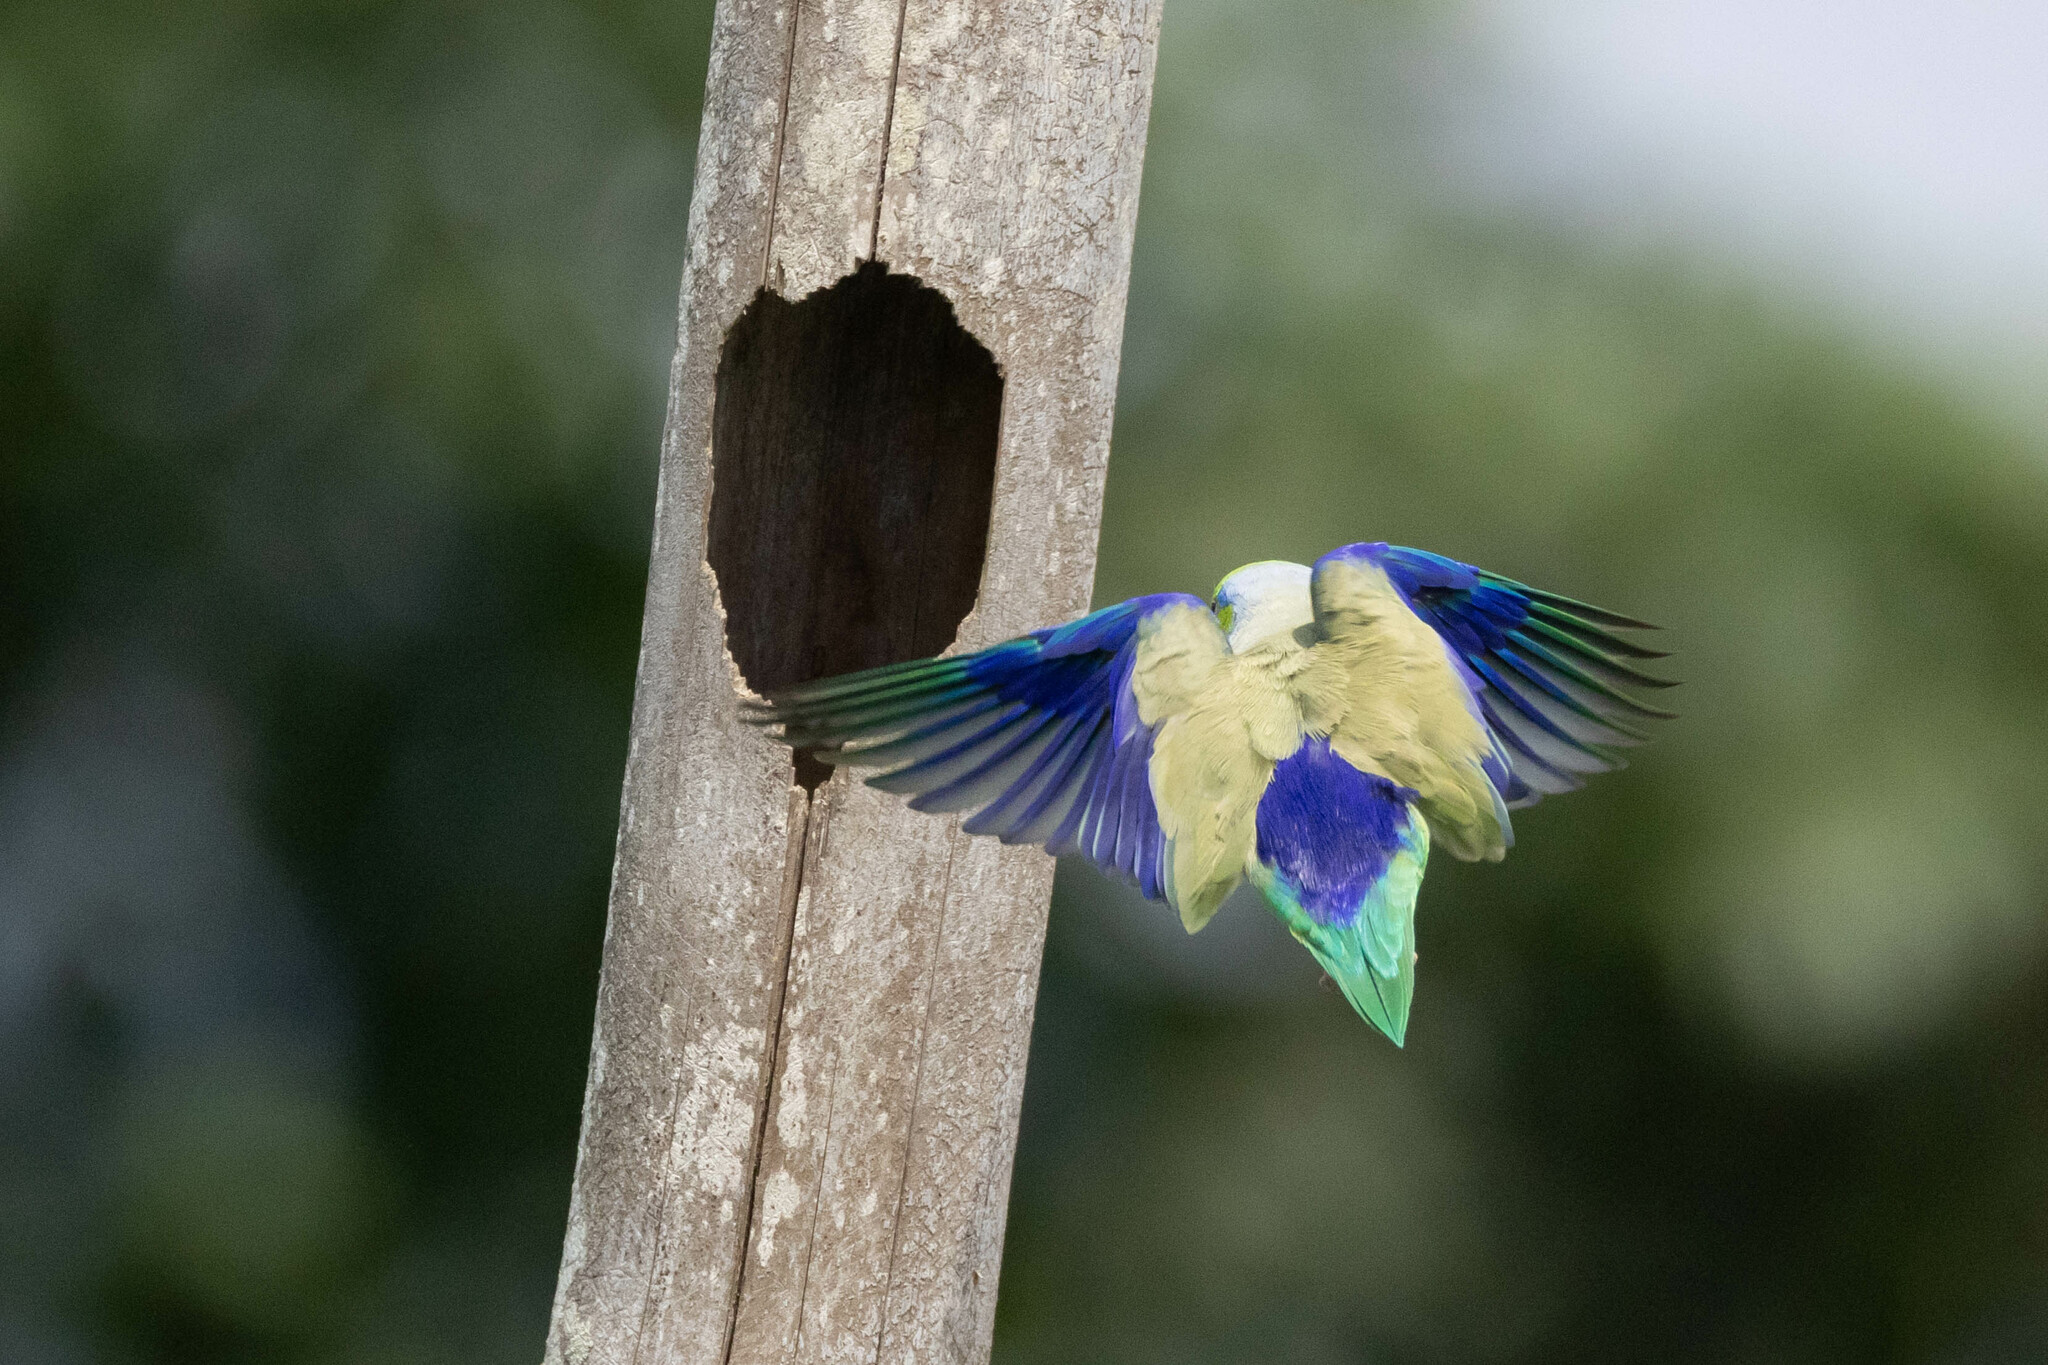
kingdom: Animalia
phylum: Chordata
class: Aves
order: Psittaciformes
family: Psittacidae
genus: Forpus
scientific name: Forpus coelestis
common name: Pacific parrotlet
